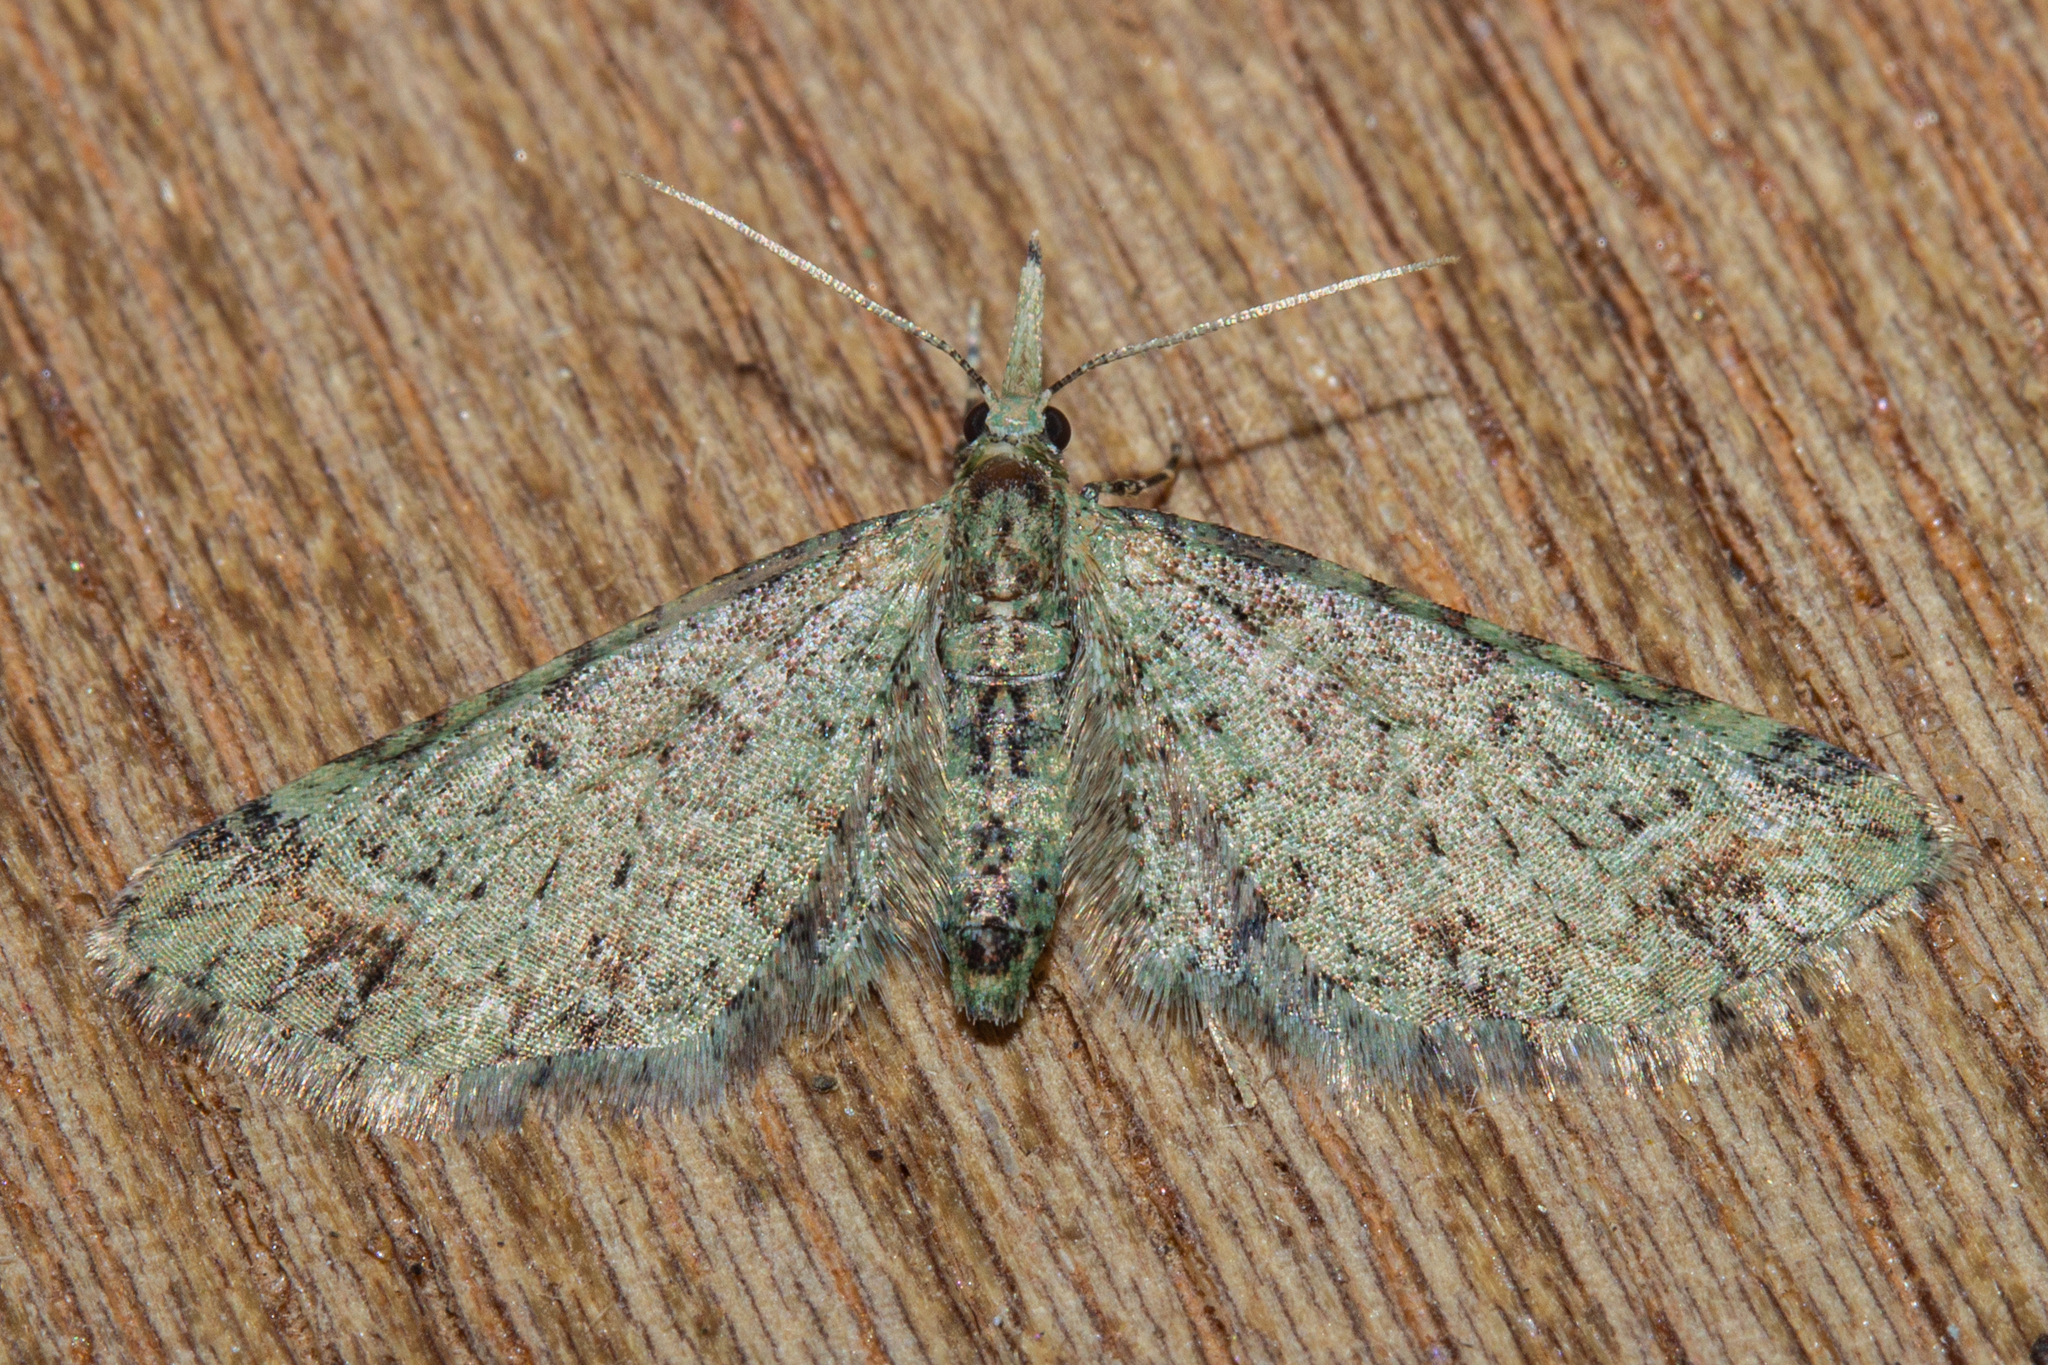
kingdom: Animalia
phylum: Arthropoda
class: Insecta
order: Lepidoptera
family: Geometridae
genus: Pasiphila
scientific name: Pasiphila plinthina
